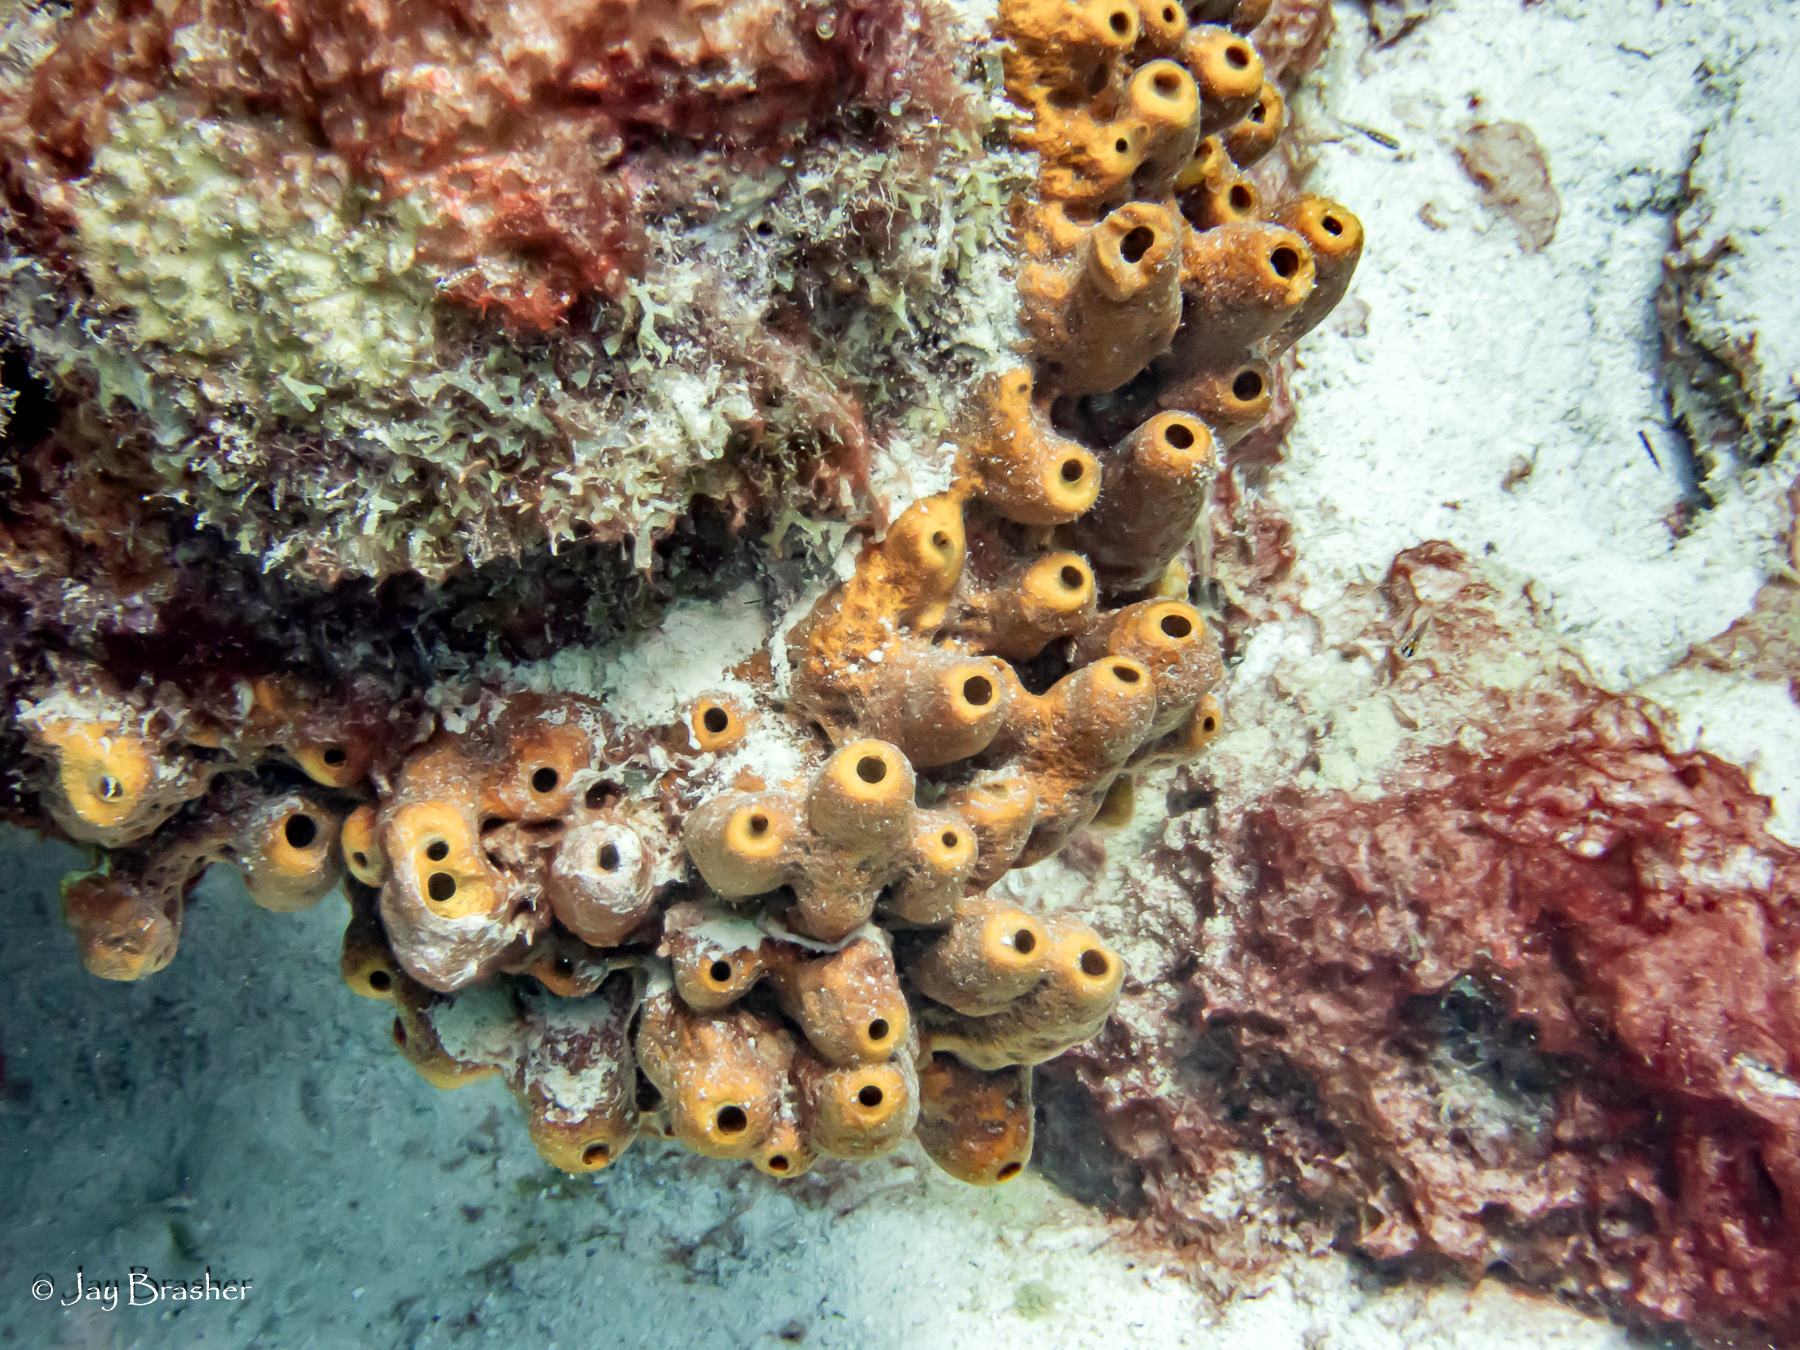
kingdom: Animalia
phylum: Porifera
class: Demospongiae
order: Axinellida
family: Raspailiidae
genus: Ectyoplasia
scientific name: Ectyoplasia ferox
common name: Brown encrusting octopus sponge
